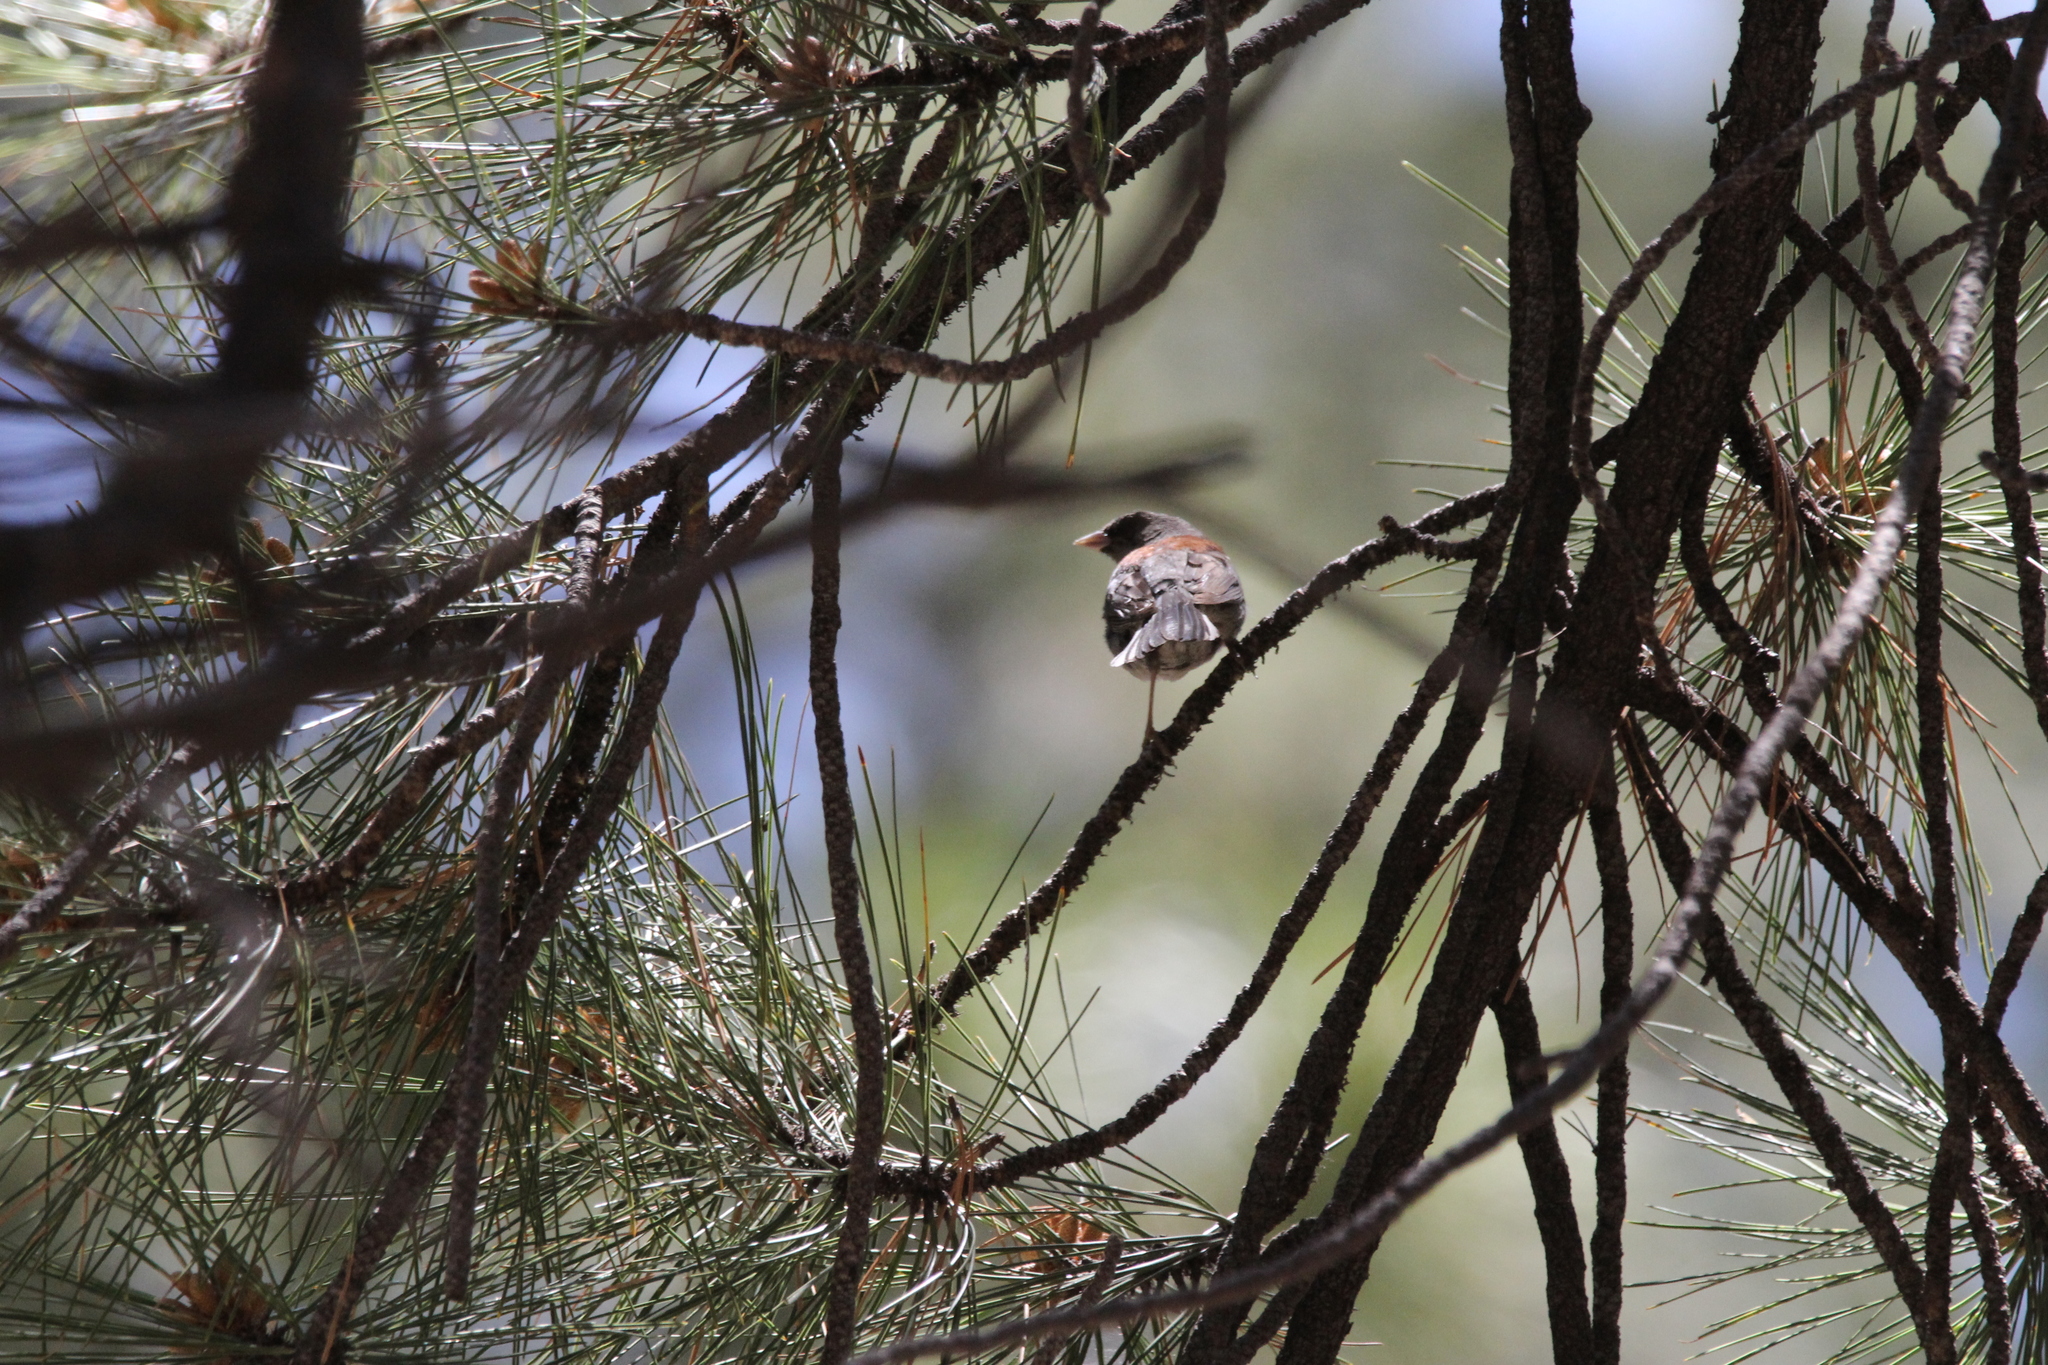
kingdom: Animalia
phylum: Chordata
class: Aves
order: Passeriformes
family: Passerellidae
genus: Junco
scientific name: Junco hyemalis
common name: Dark-eyed junco
